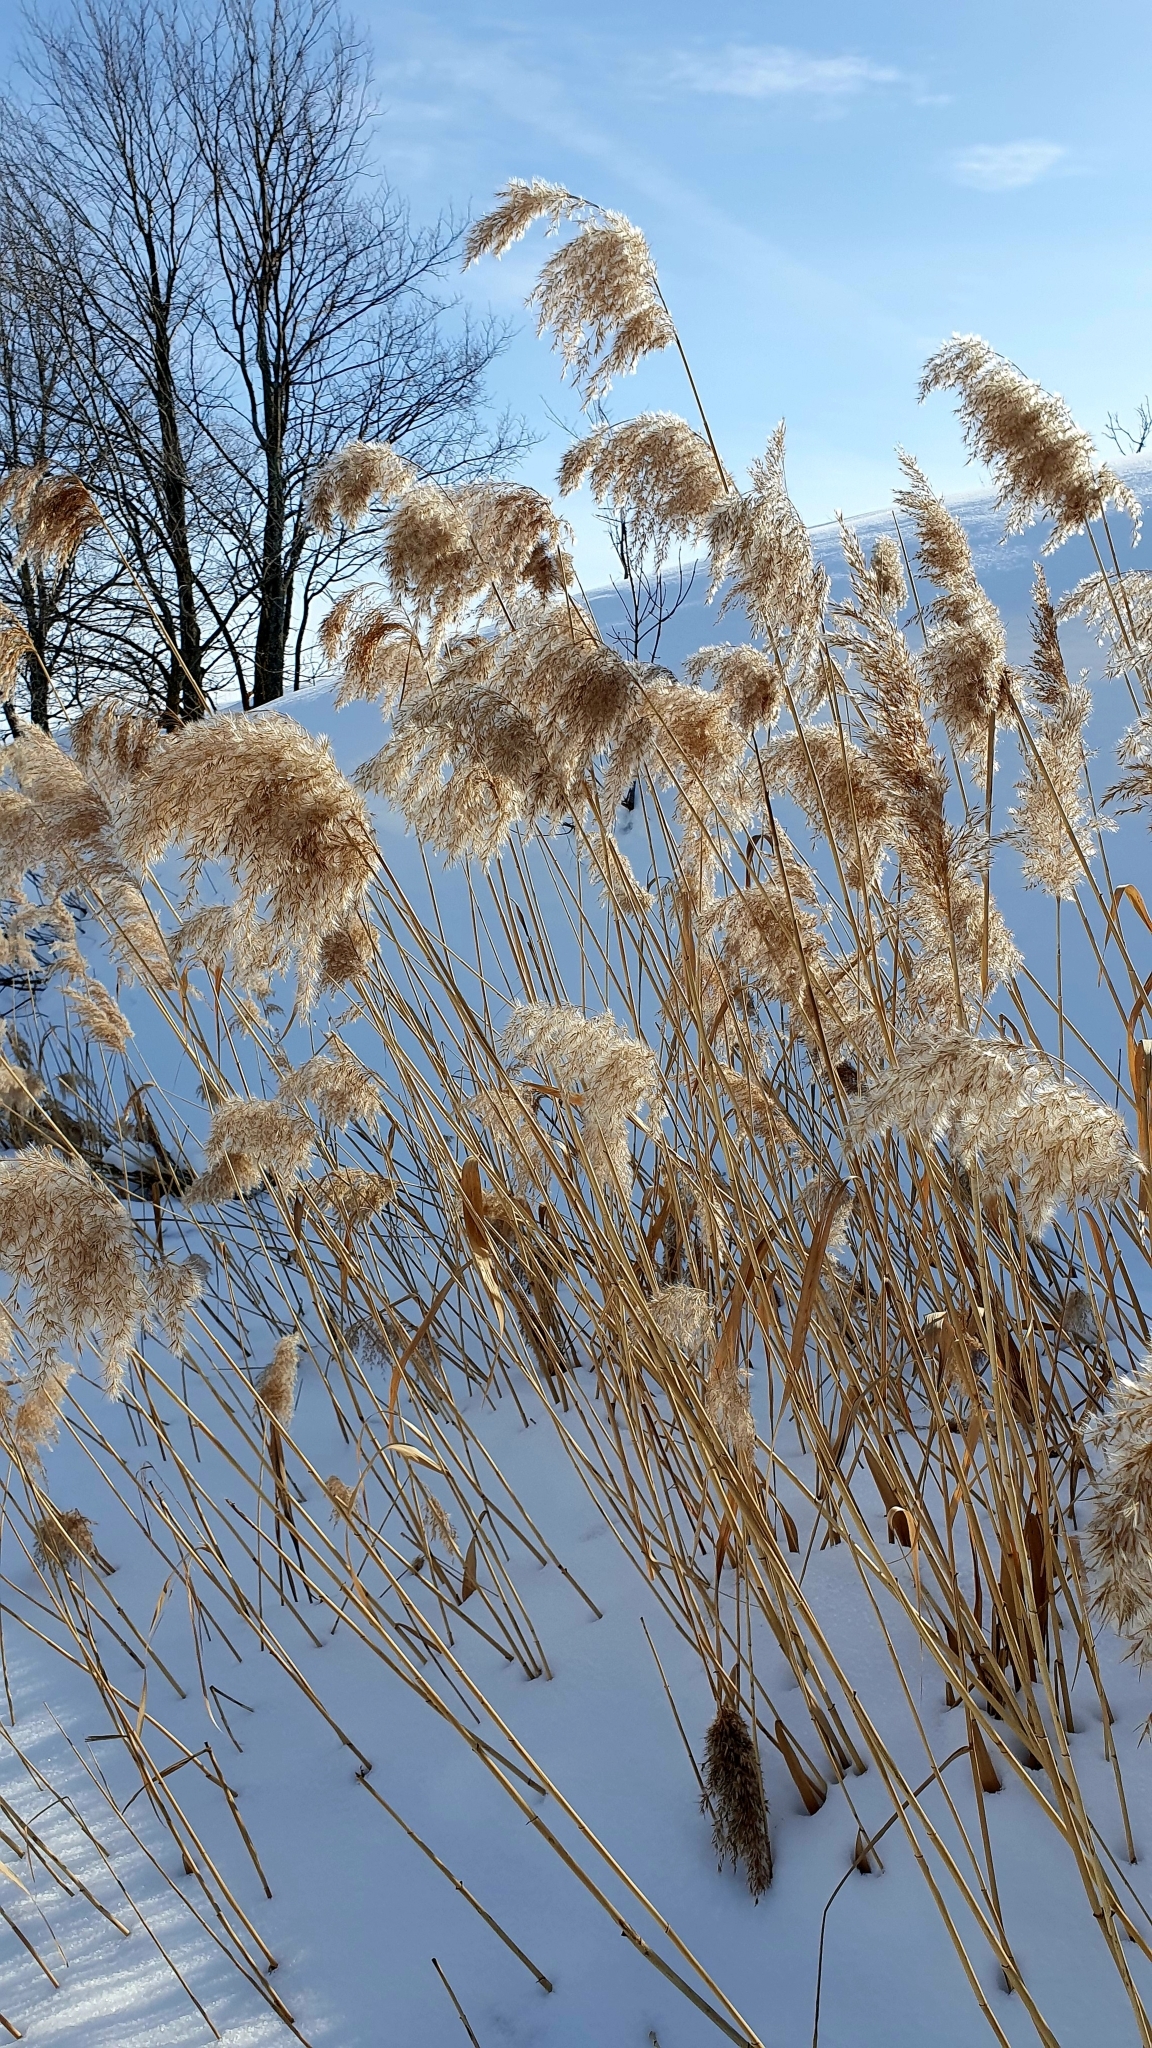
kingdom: Plantae
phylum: Tracheophyta
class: Liliopsida
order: Poales
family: Poaceae
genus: Phragmites
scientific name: Phragmites australis
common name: Common reed
